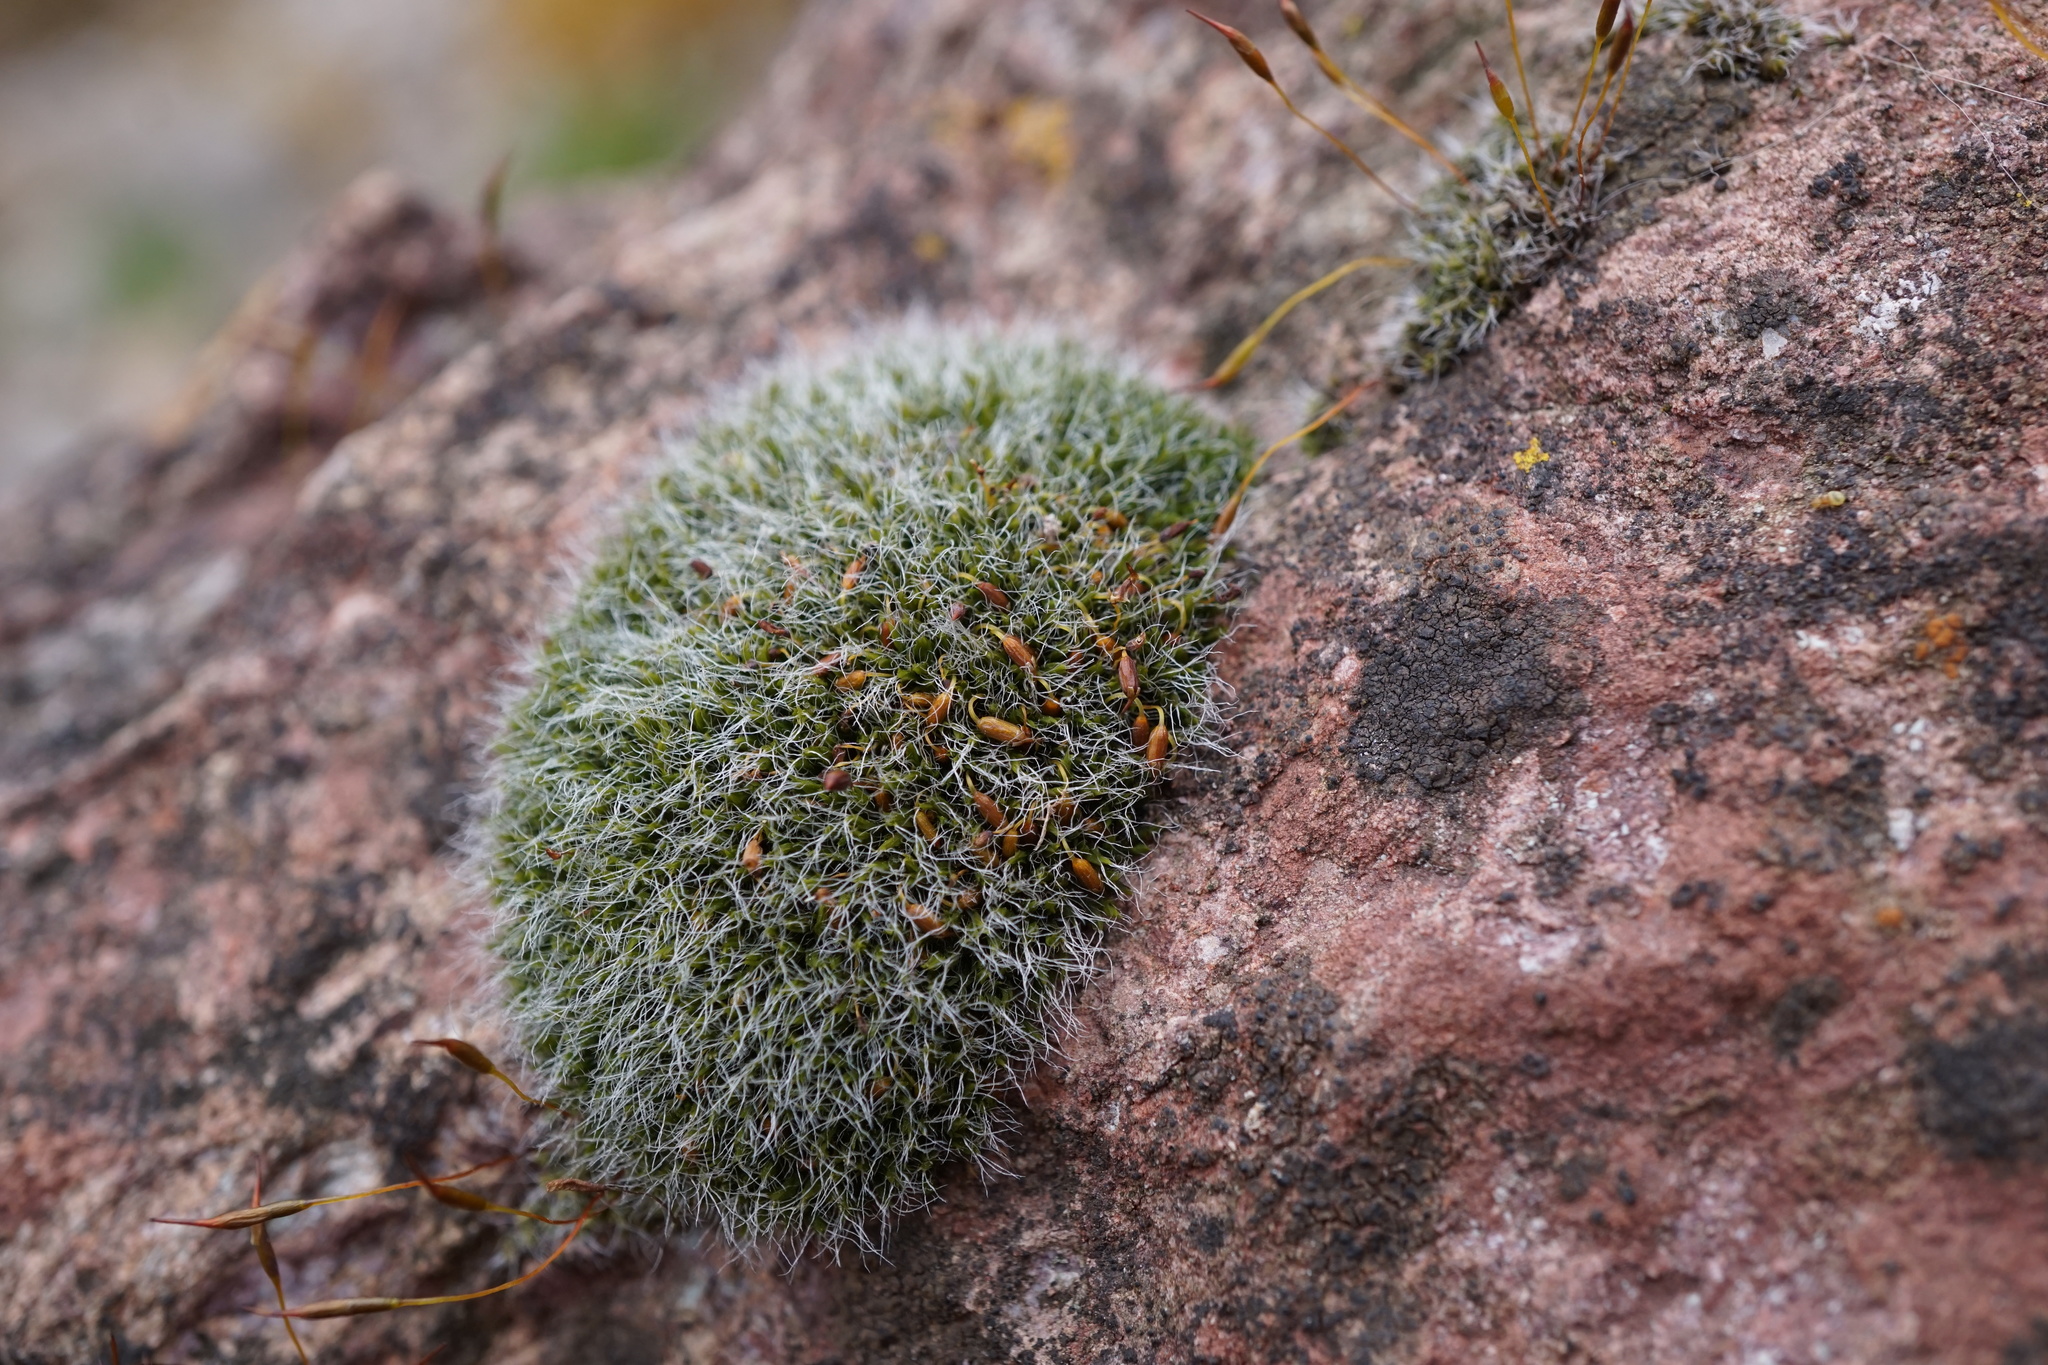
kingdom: Plantae
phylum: Bryophyta
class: Bryopsida
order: Grimmiales
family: Grimmiaceae
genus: Grimmia
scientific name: Grimmia pulvinata
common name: Grey-cushioned grimmia
